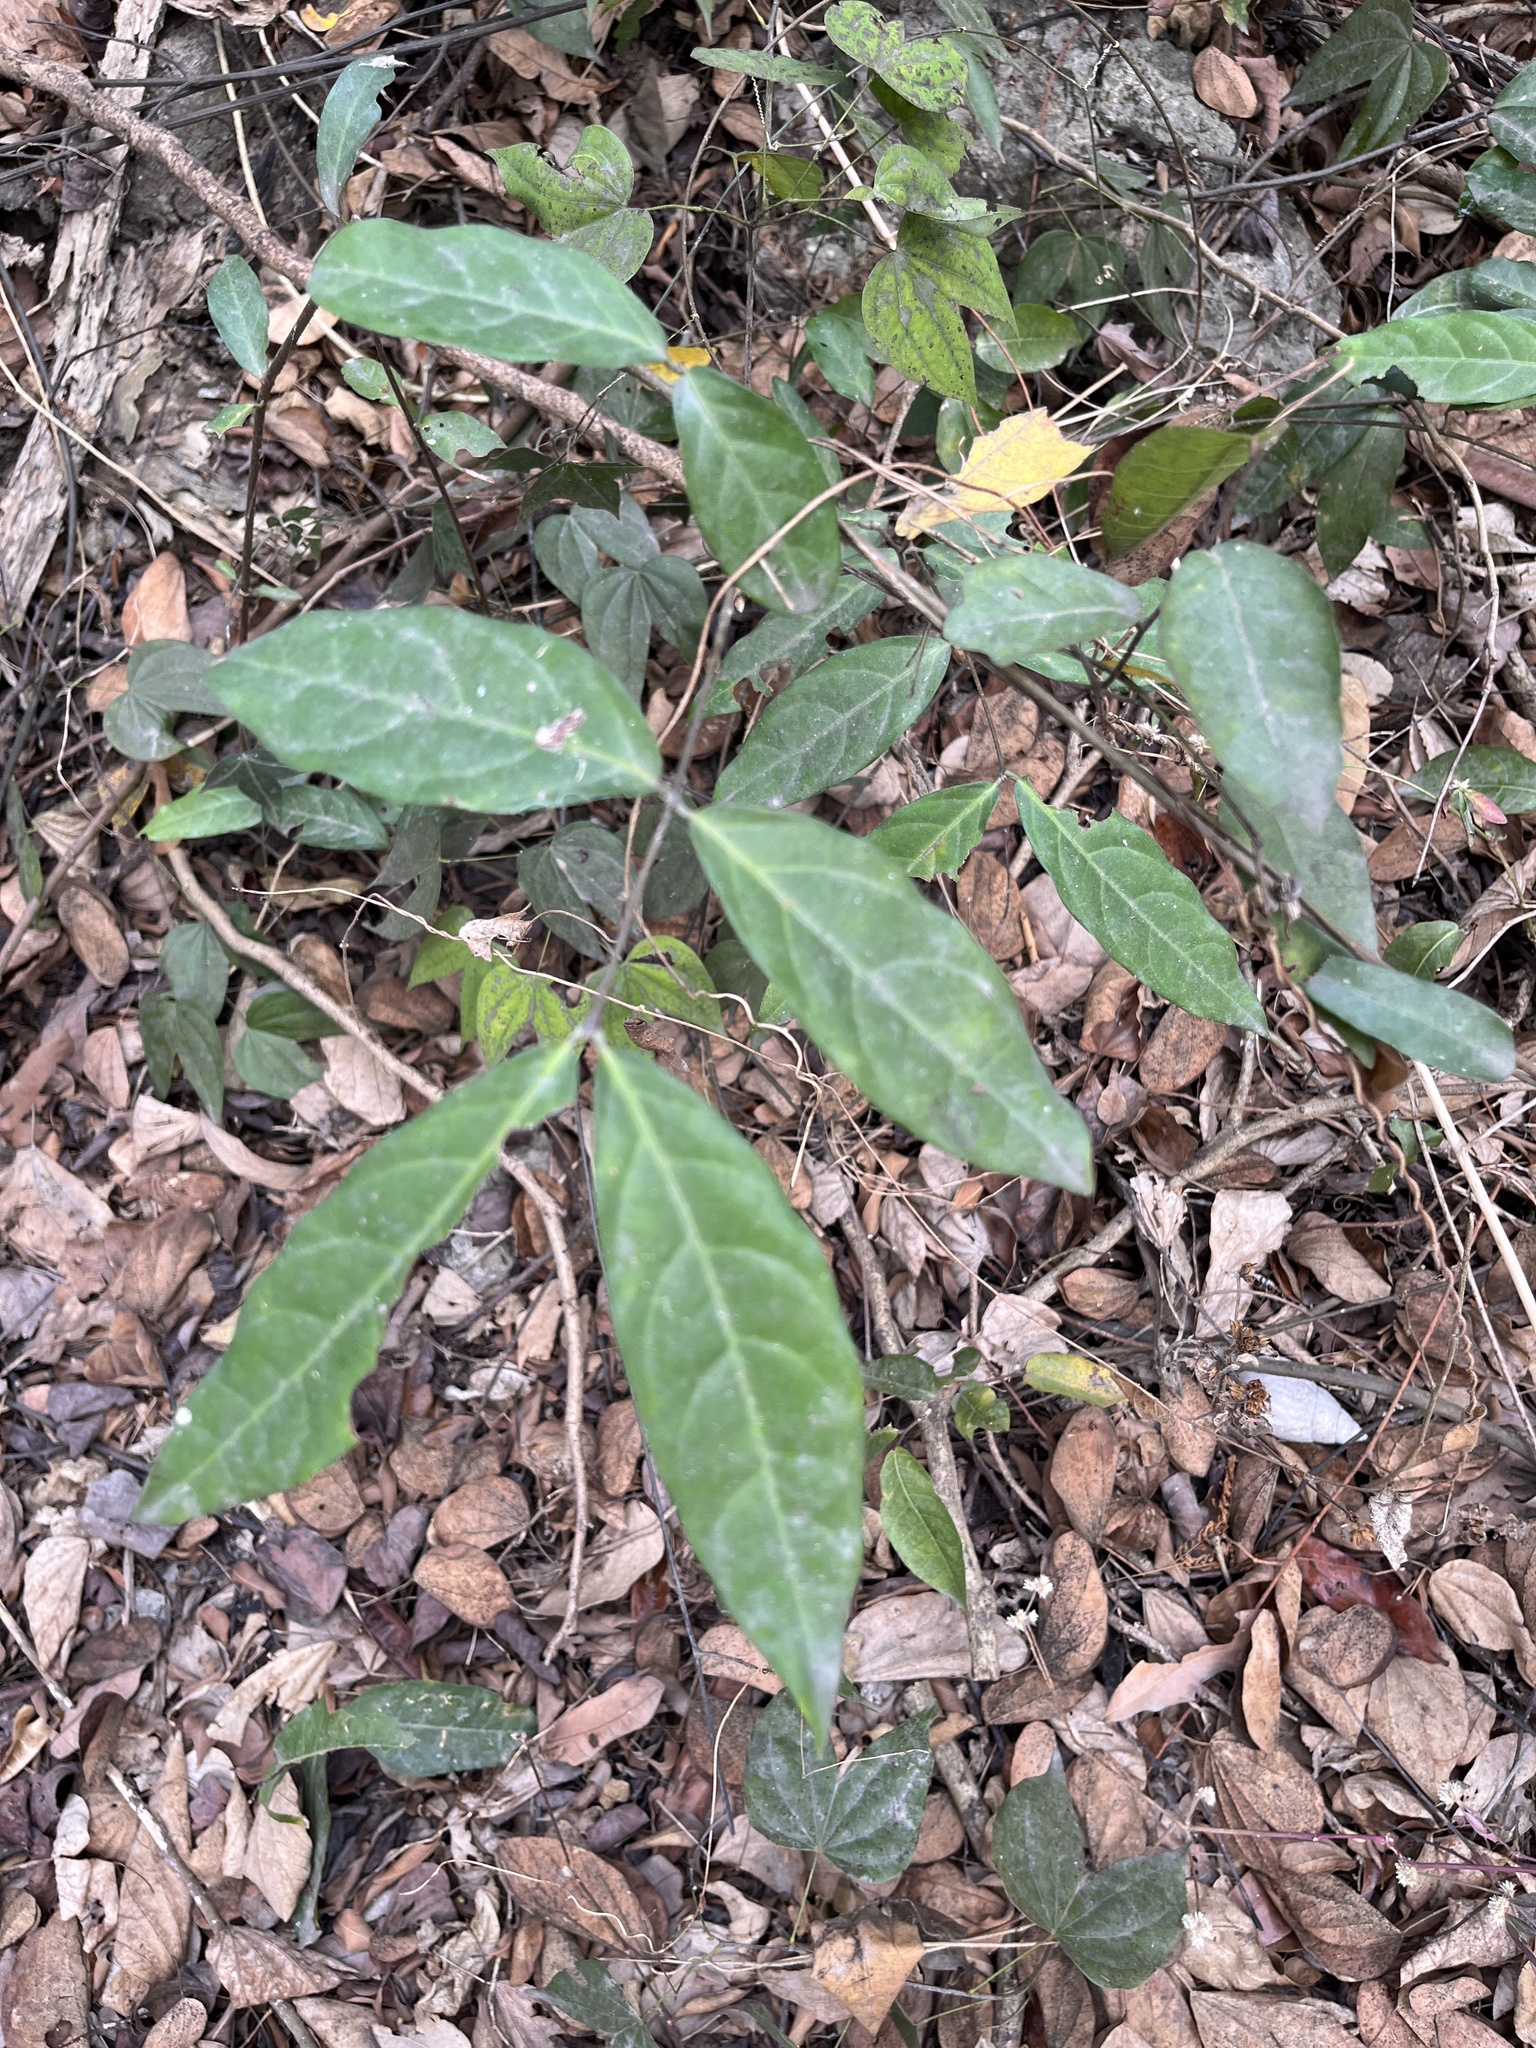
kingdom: Plantae
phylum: Tracheophyta
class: Magnoliopsida
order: Malpighiales
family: Malpighiaceae
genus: Hiptage
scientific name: Hiptage benghalensis
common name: Hiptage
